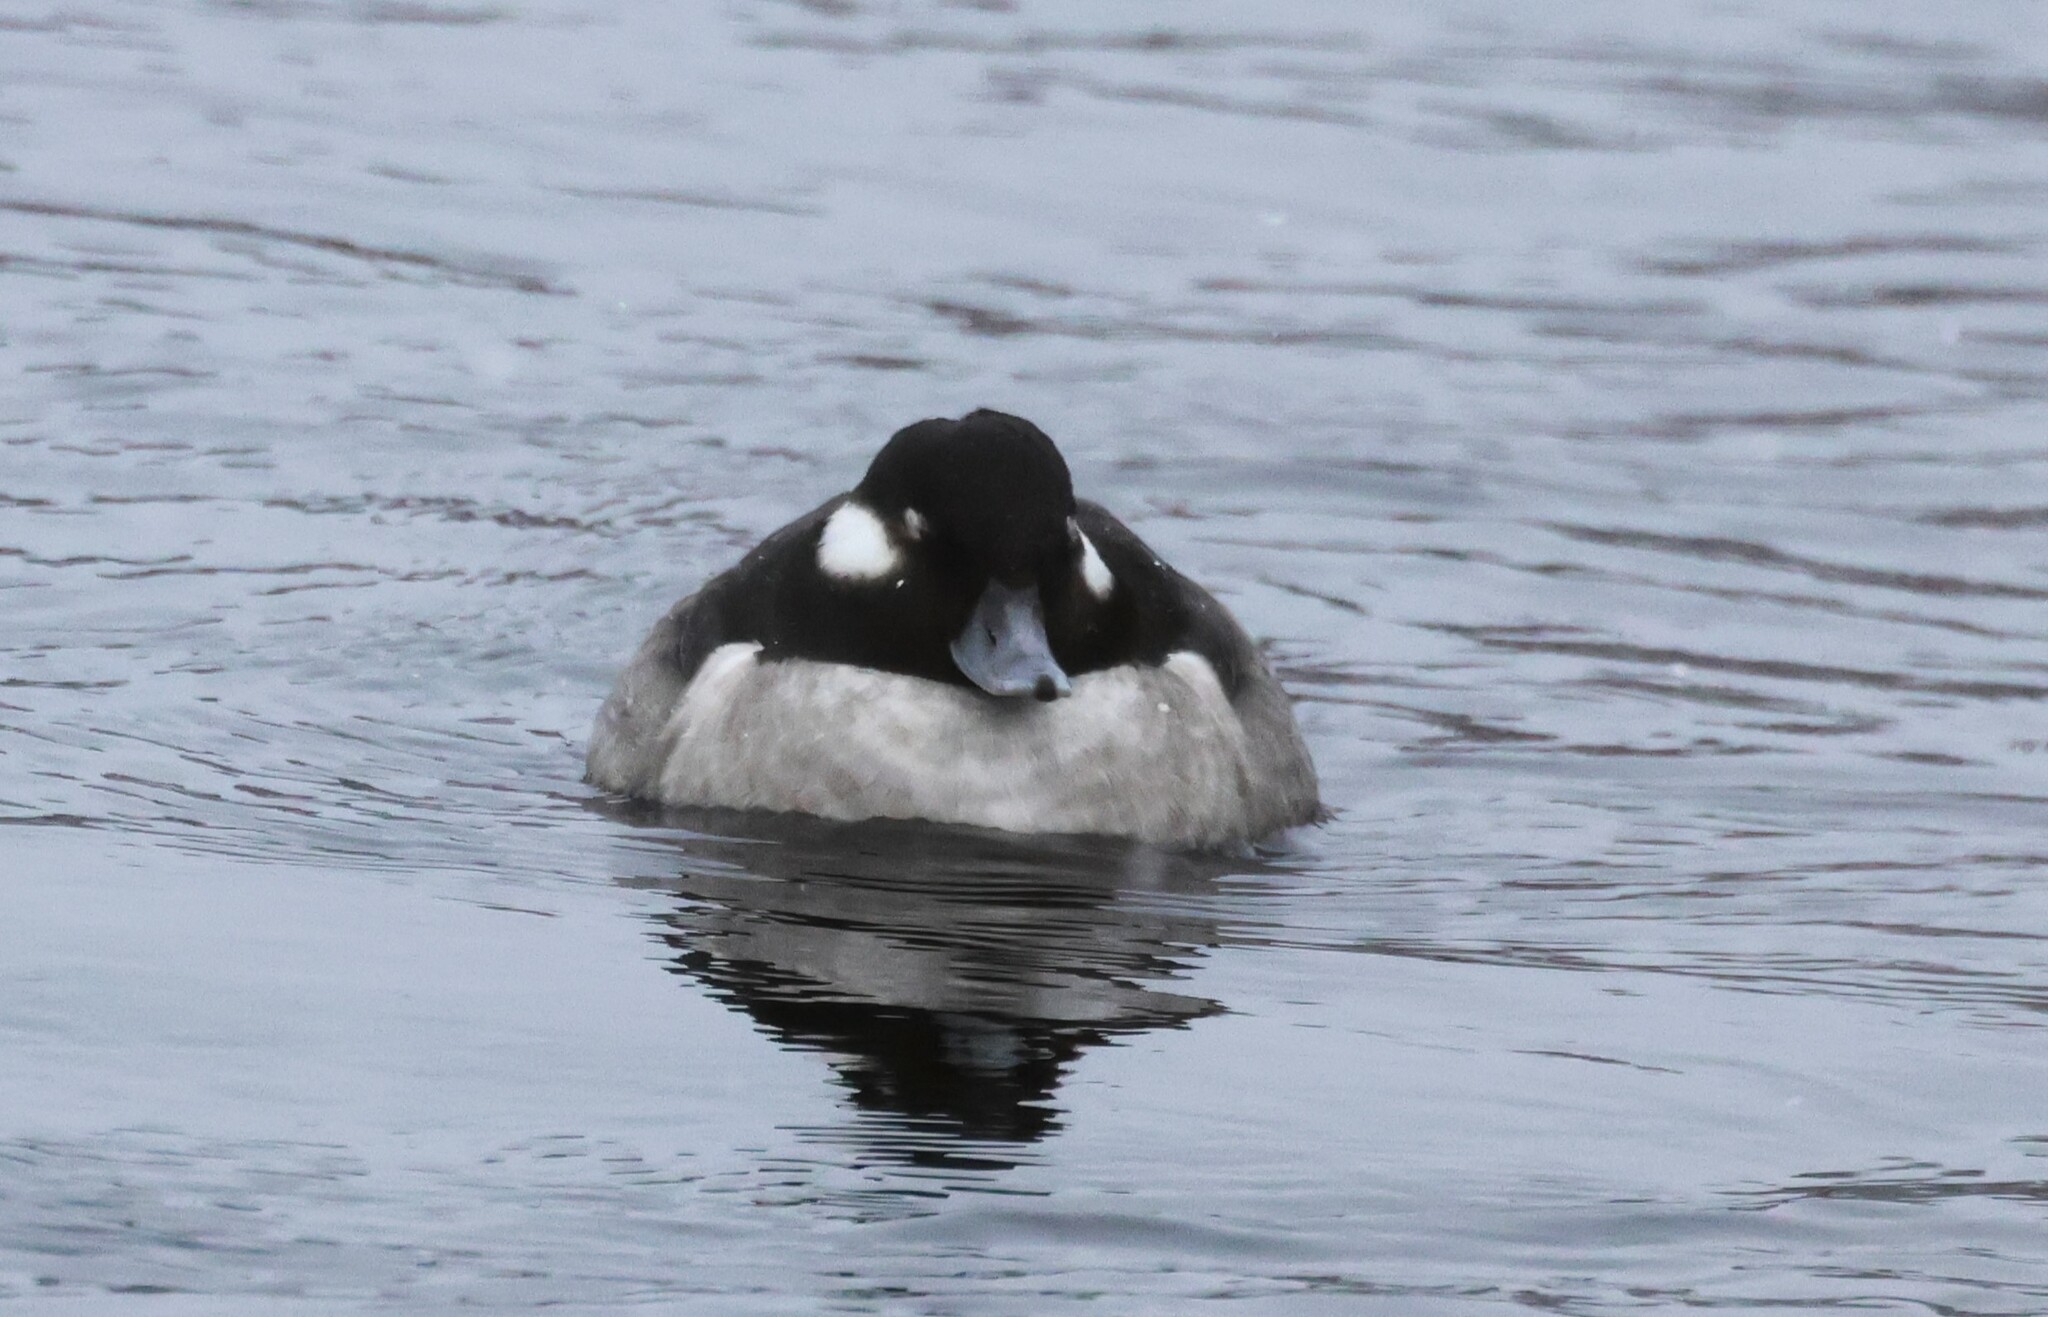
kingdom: Animalia
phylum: Chordata
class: Aves
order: Anseriformes
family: Anatidae
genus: Bucephala
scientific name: Bucephala albeola
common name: Bufflehead
